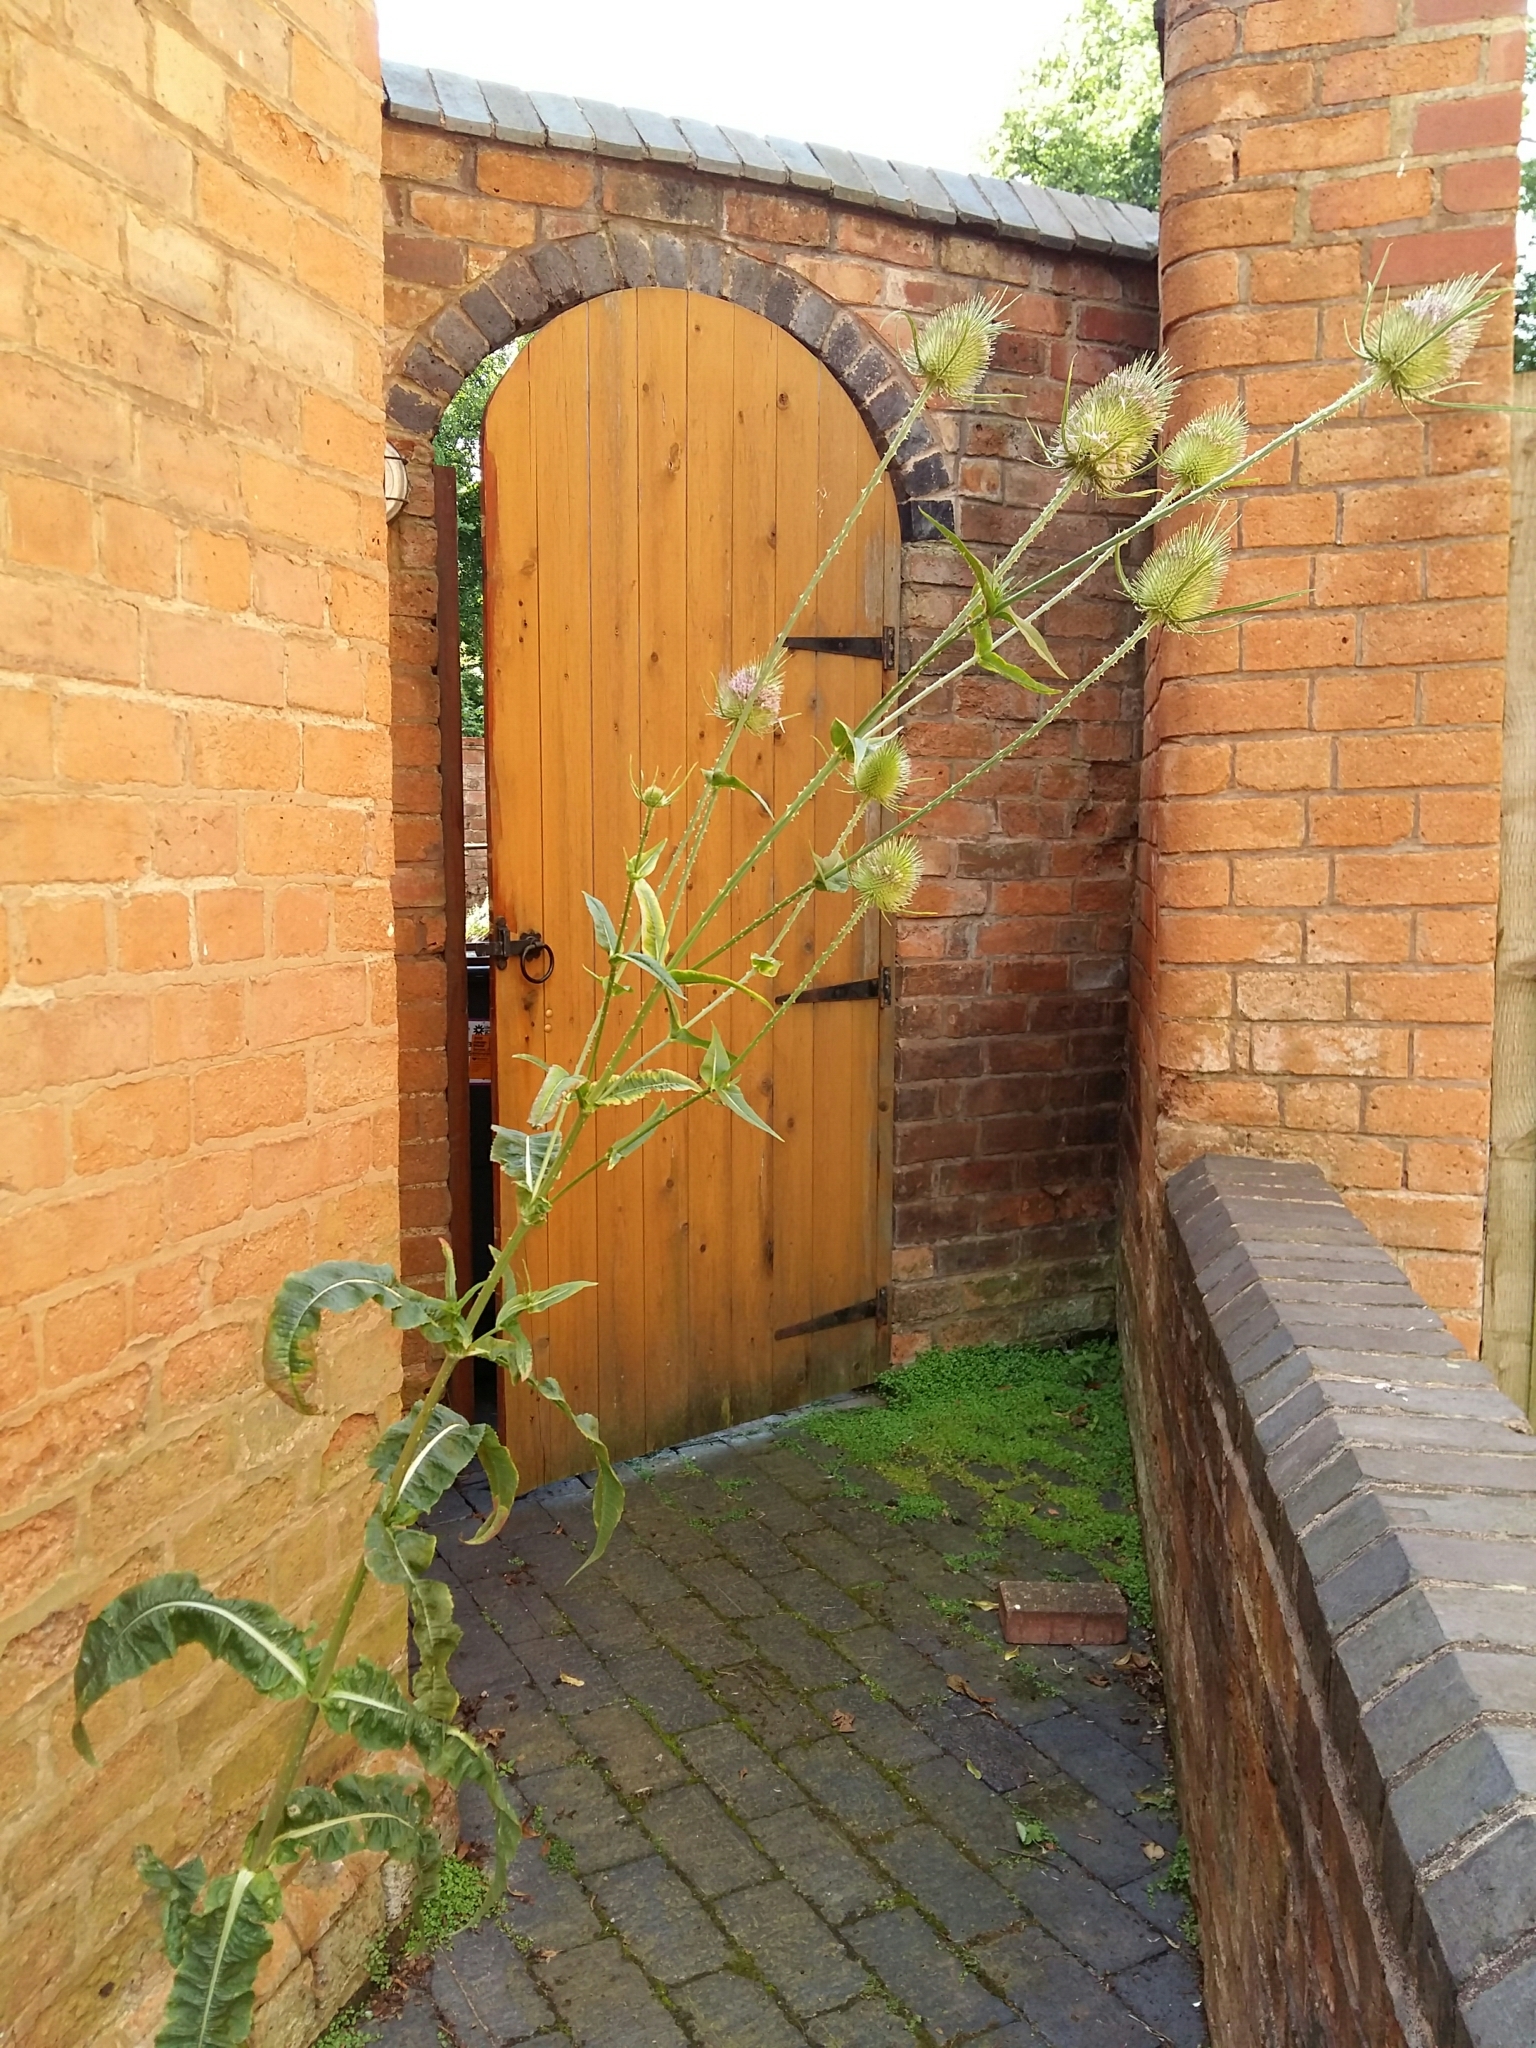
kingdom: Plantae
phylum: Tracheophyta
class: Magnoliopsida
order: Dipsacales
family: Caprifoliaceae
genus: Dipsacus
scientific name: Dipsacus fullonum
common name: Teasel
